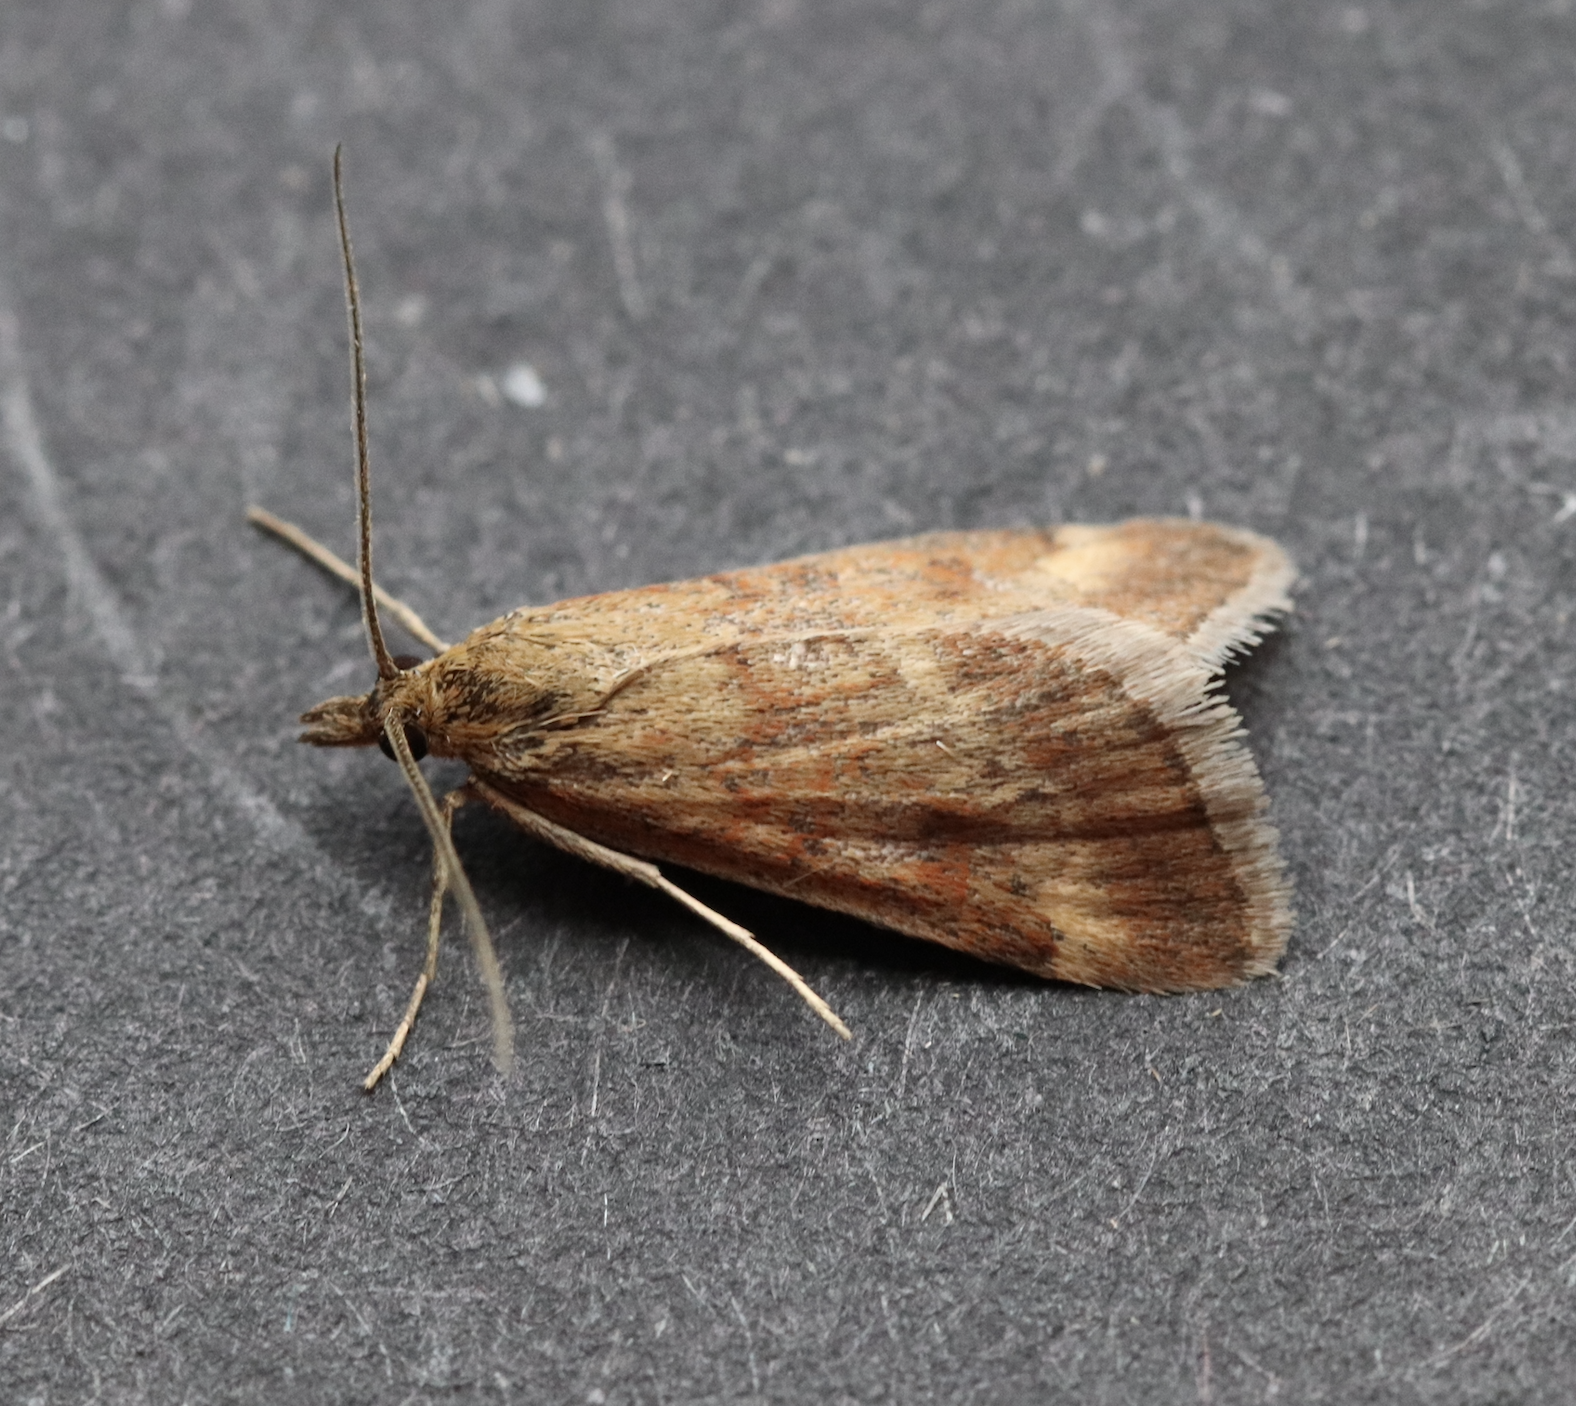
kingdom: Animalia
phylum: Arthropoda
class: Insecta
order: Lepidoptera
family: Crambidae
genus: Pyrausta
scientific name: Pyrausta despicata
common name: Straw-barred pearl
